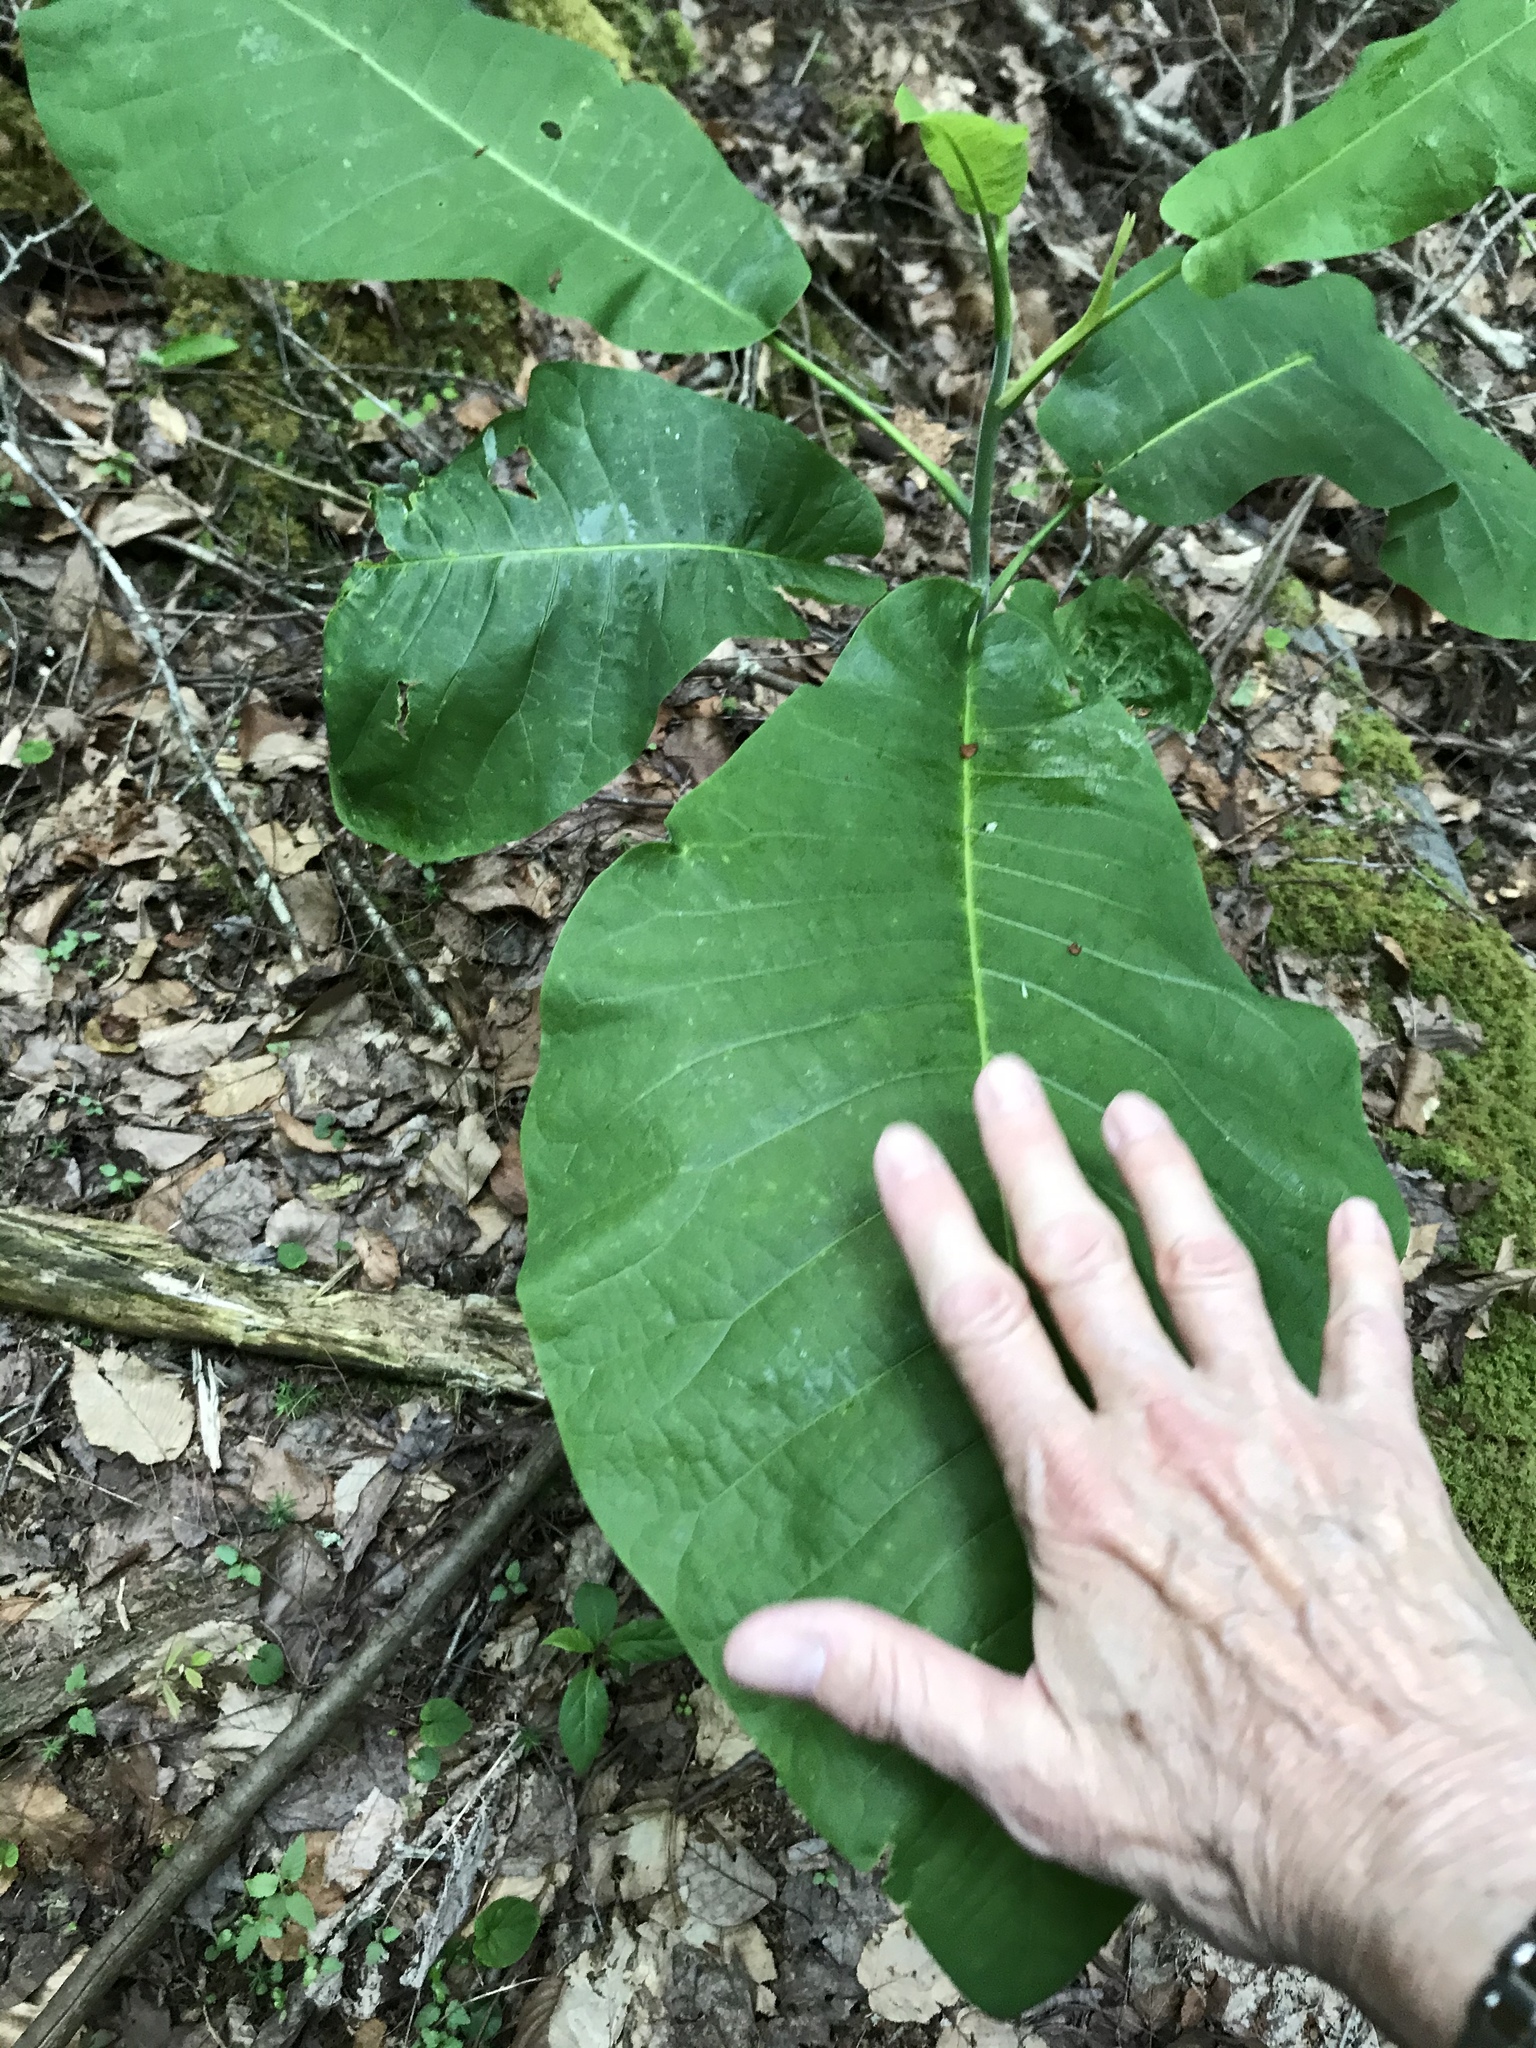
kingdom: Plantae
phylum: Tracheophyta
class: Magnoliopsida
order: Magnoliales
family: Magnoliaceae
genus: Magnolia
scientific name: Magnolia macrophylla
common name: Big-leaf magnolia
